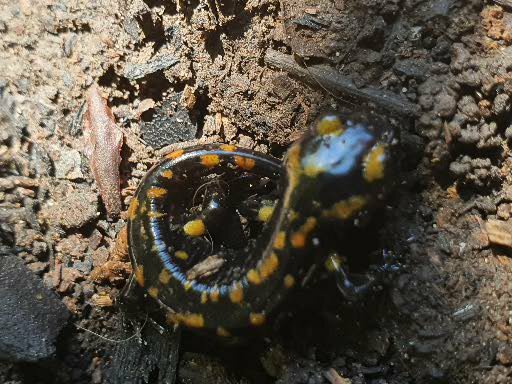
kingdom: Animalia
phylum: Chordata
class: Amphibia
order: Caudata
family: Salamandridae
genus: Salamandra
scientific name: Salamandra algira
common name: North african fire salamander
